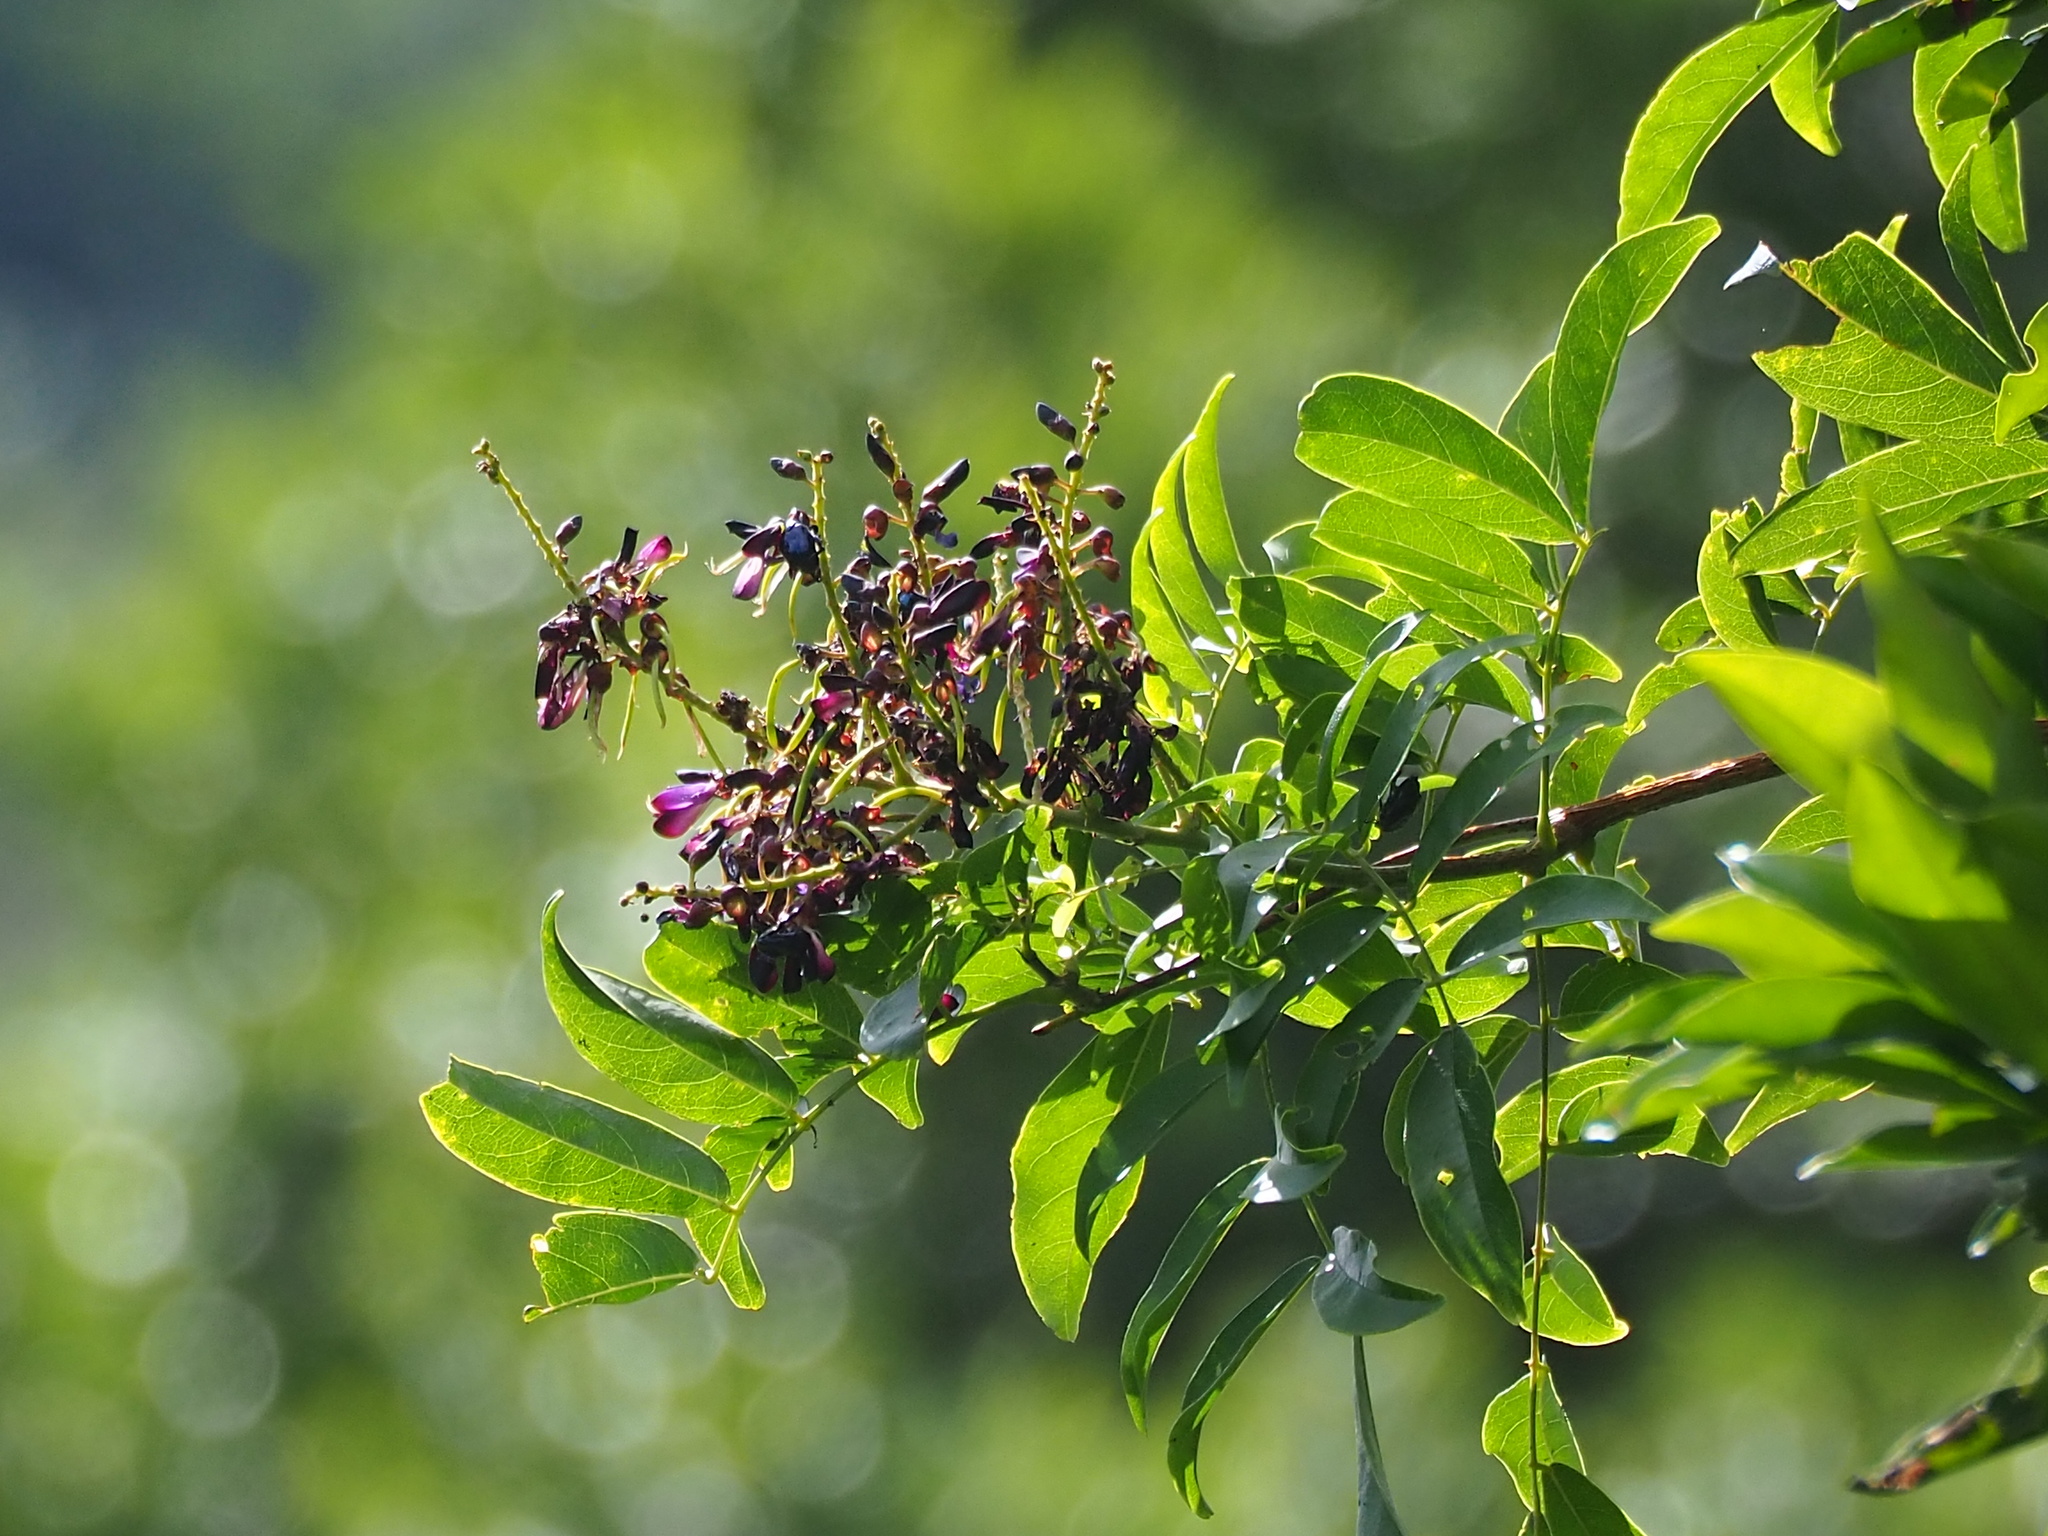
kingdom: Plantae
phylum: Tracheophyta
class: Magnoliopsida
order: Fabales
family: Fabaceae
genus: Wisteriopsis
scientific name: Wisteriopsis reticulata
